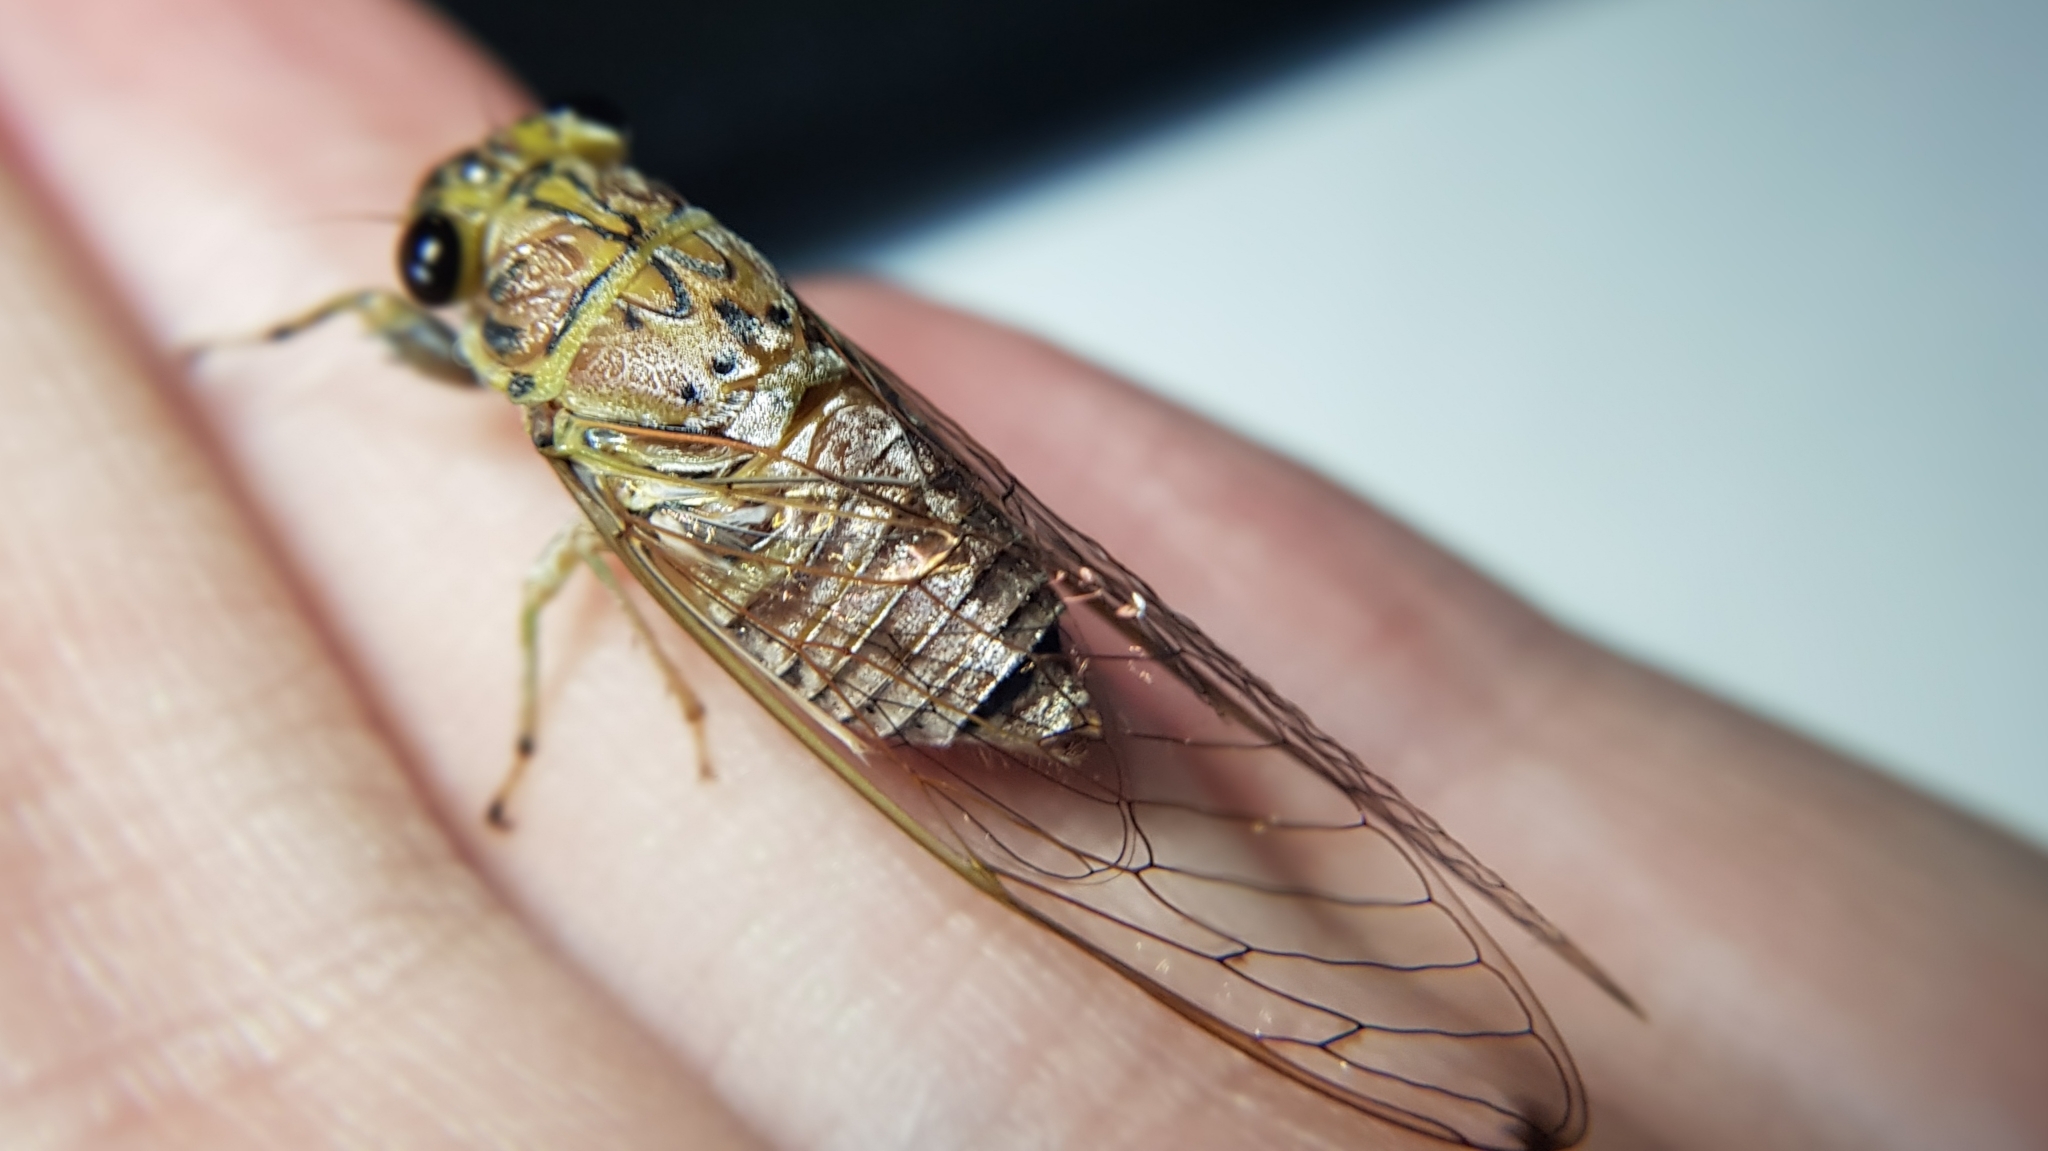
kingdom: Animalia
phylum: Arthropoda
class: Insecta
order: Hemiptera
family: Cicadidae
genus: Tamasa
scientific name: Tamasa tristigma
